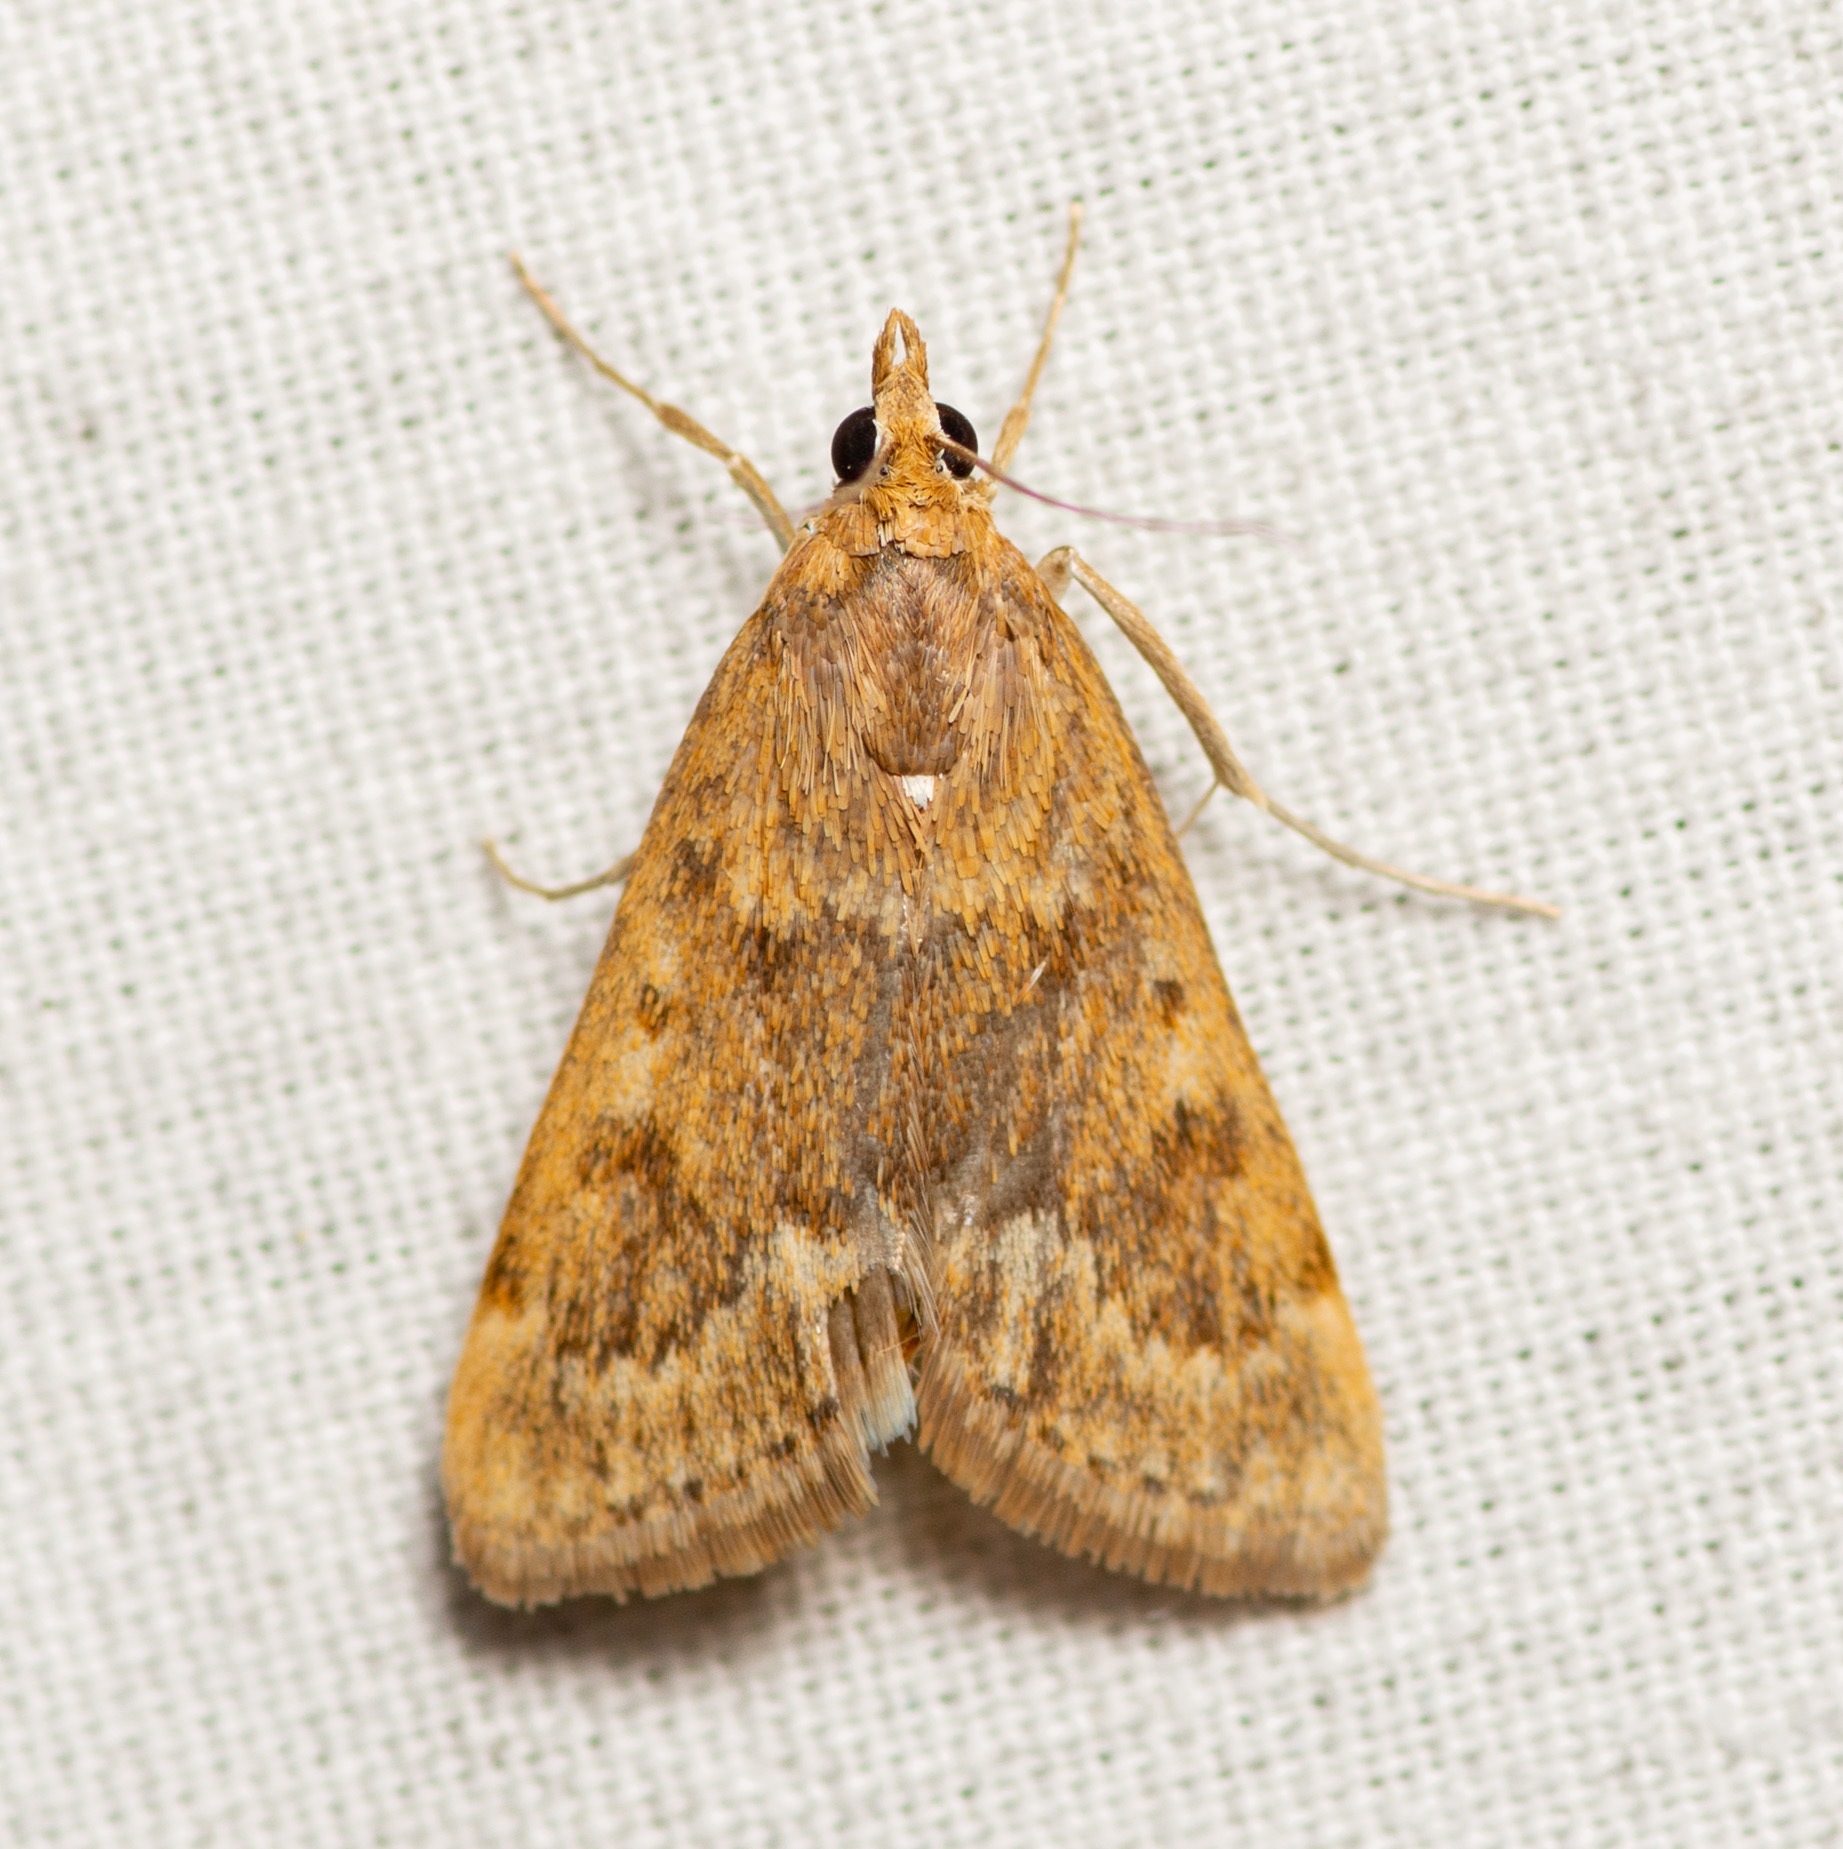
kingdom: Animalia
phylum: Arthropoda
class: Insecta
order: Lepidoptera
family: Crambidae
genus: Achyra
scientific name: Achyra rantalis
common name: Garden webworm
